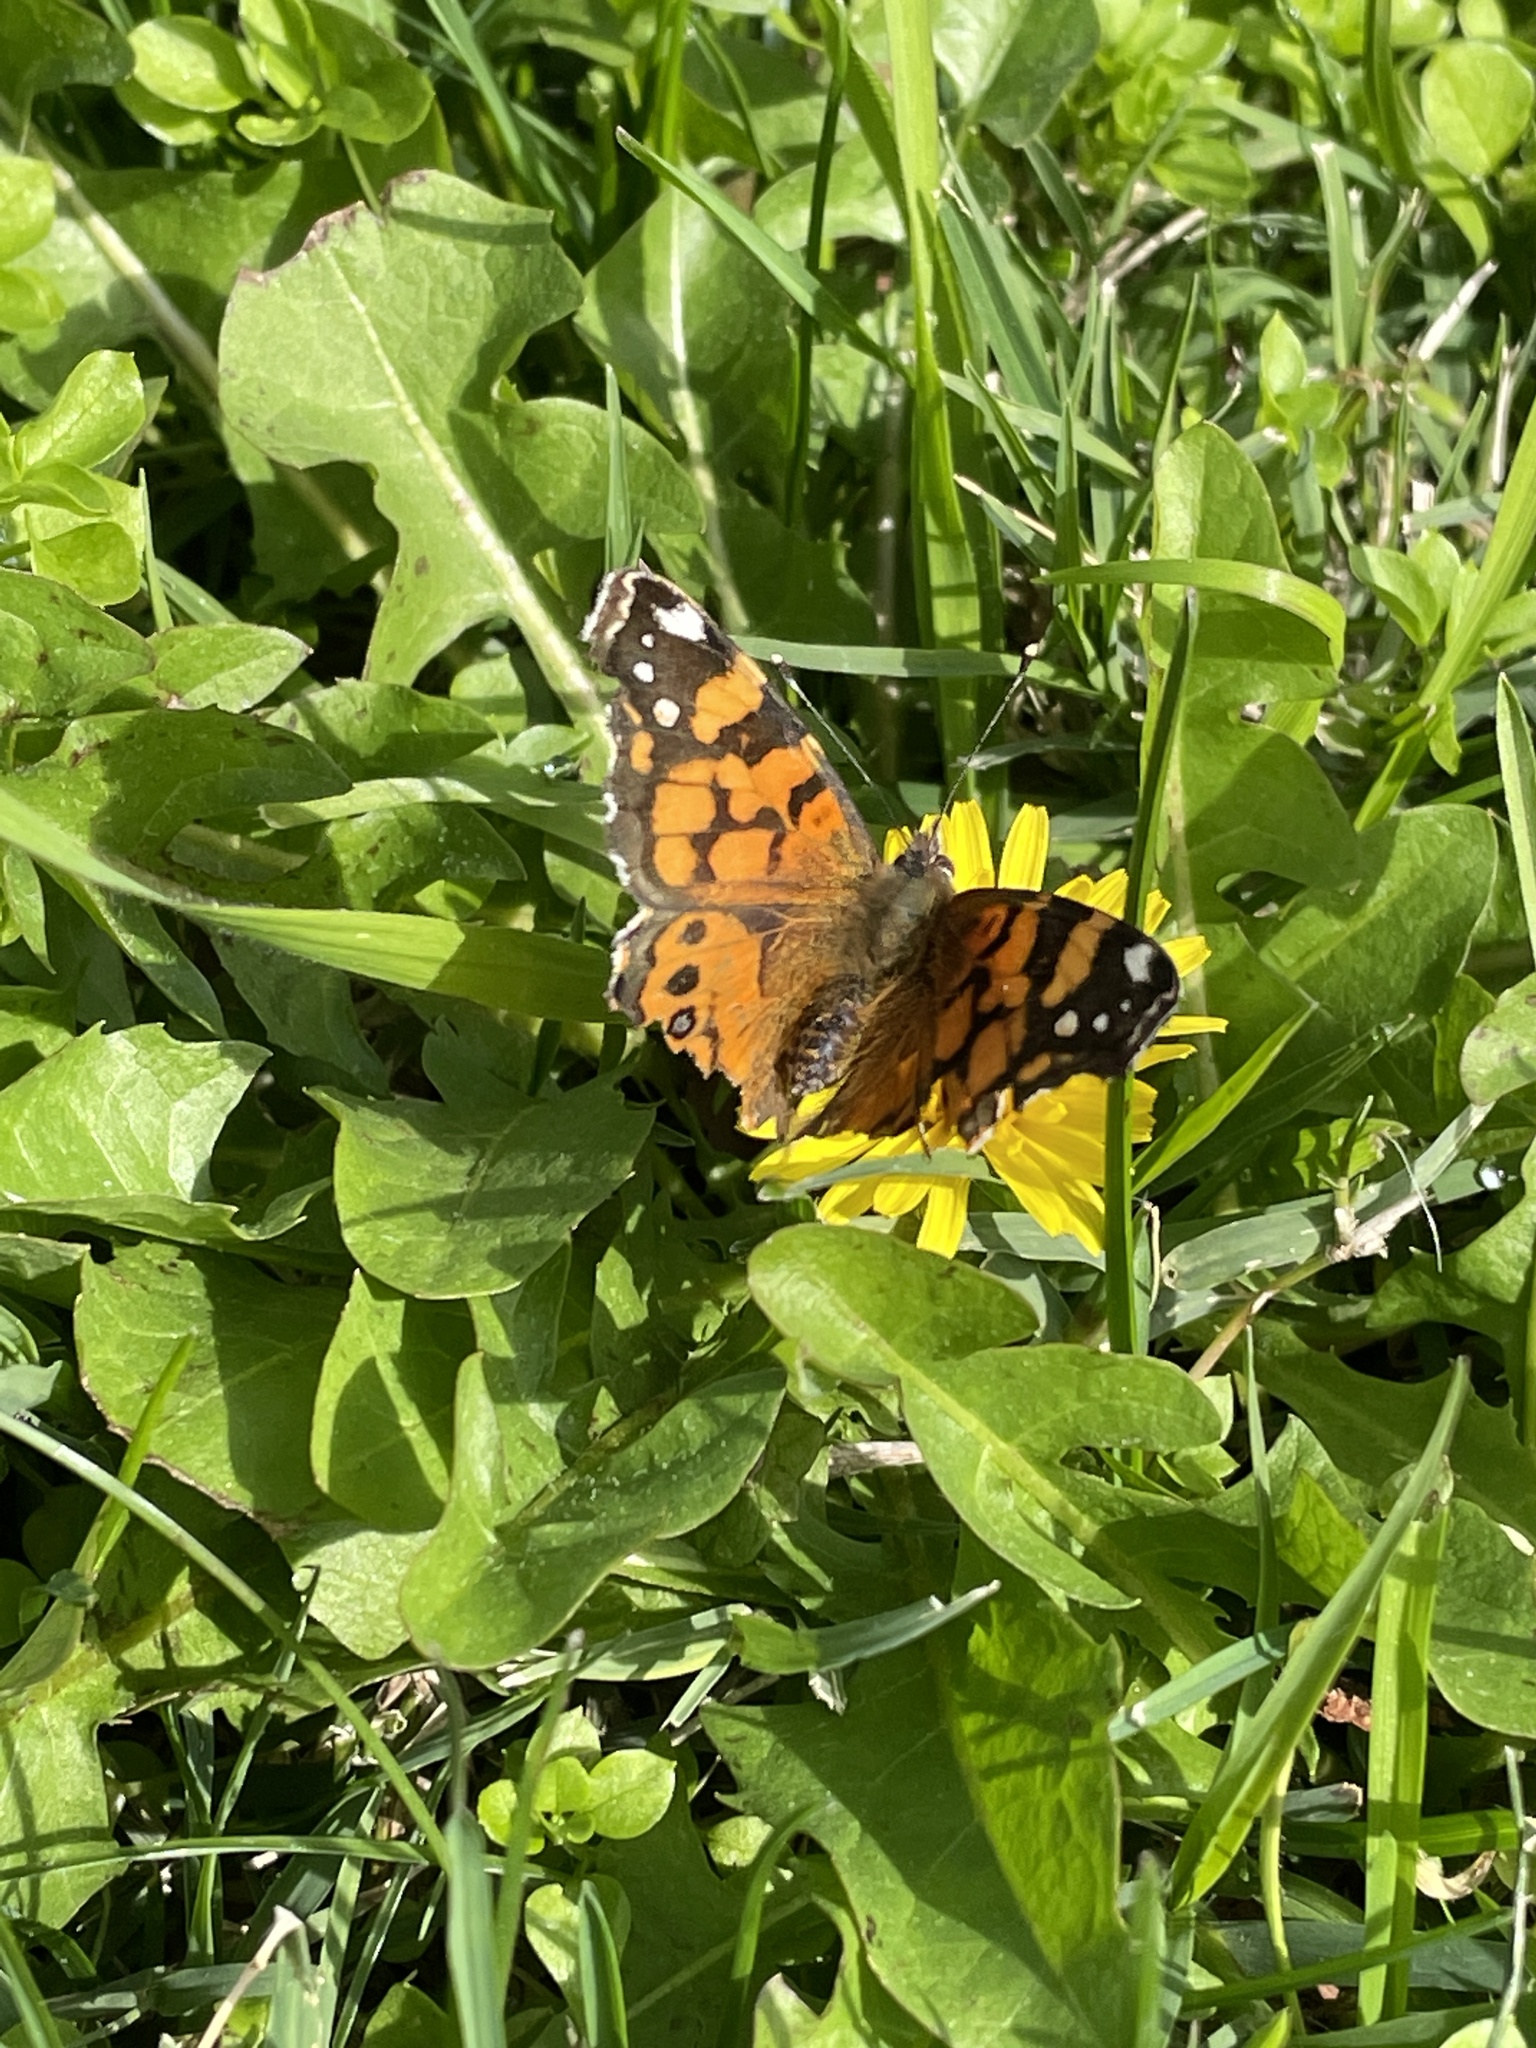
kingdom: Animalia
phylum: Arthropoda
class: Insecta
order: Lepidoptera
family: Nymphalidae
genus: Vanessa
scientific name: Vanessa annabella
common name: West coast lady
